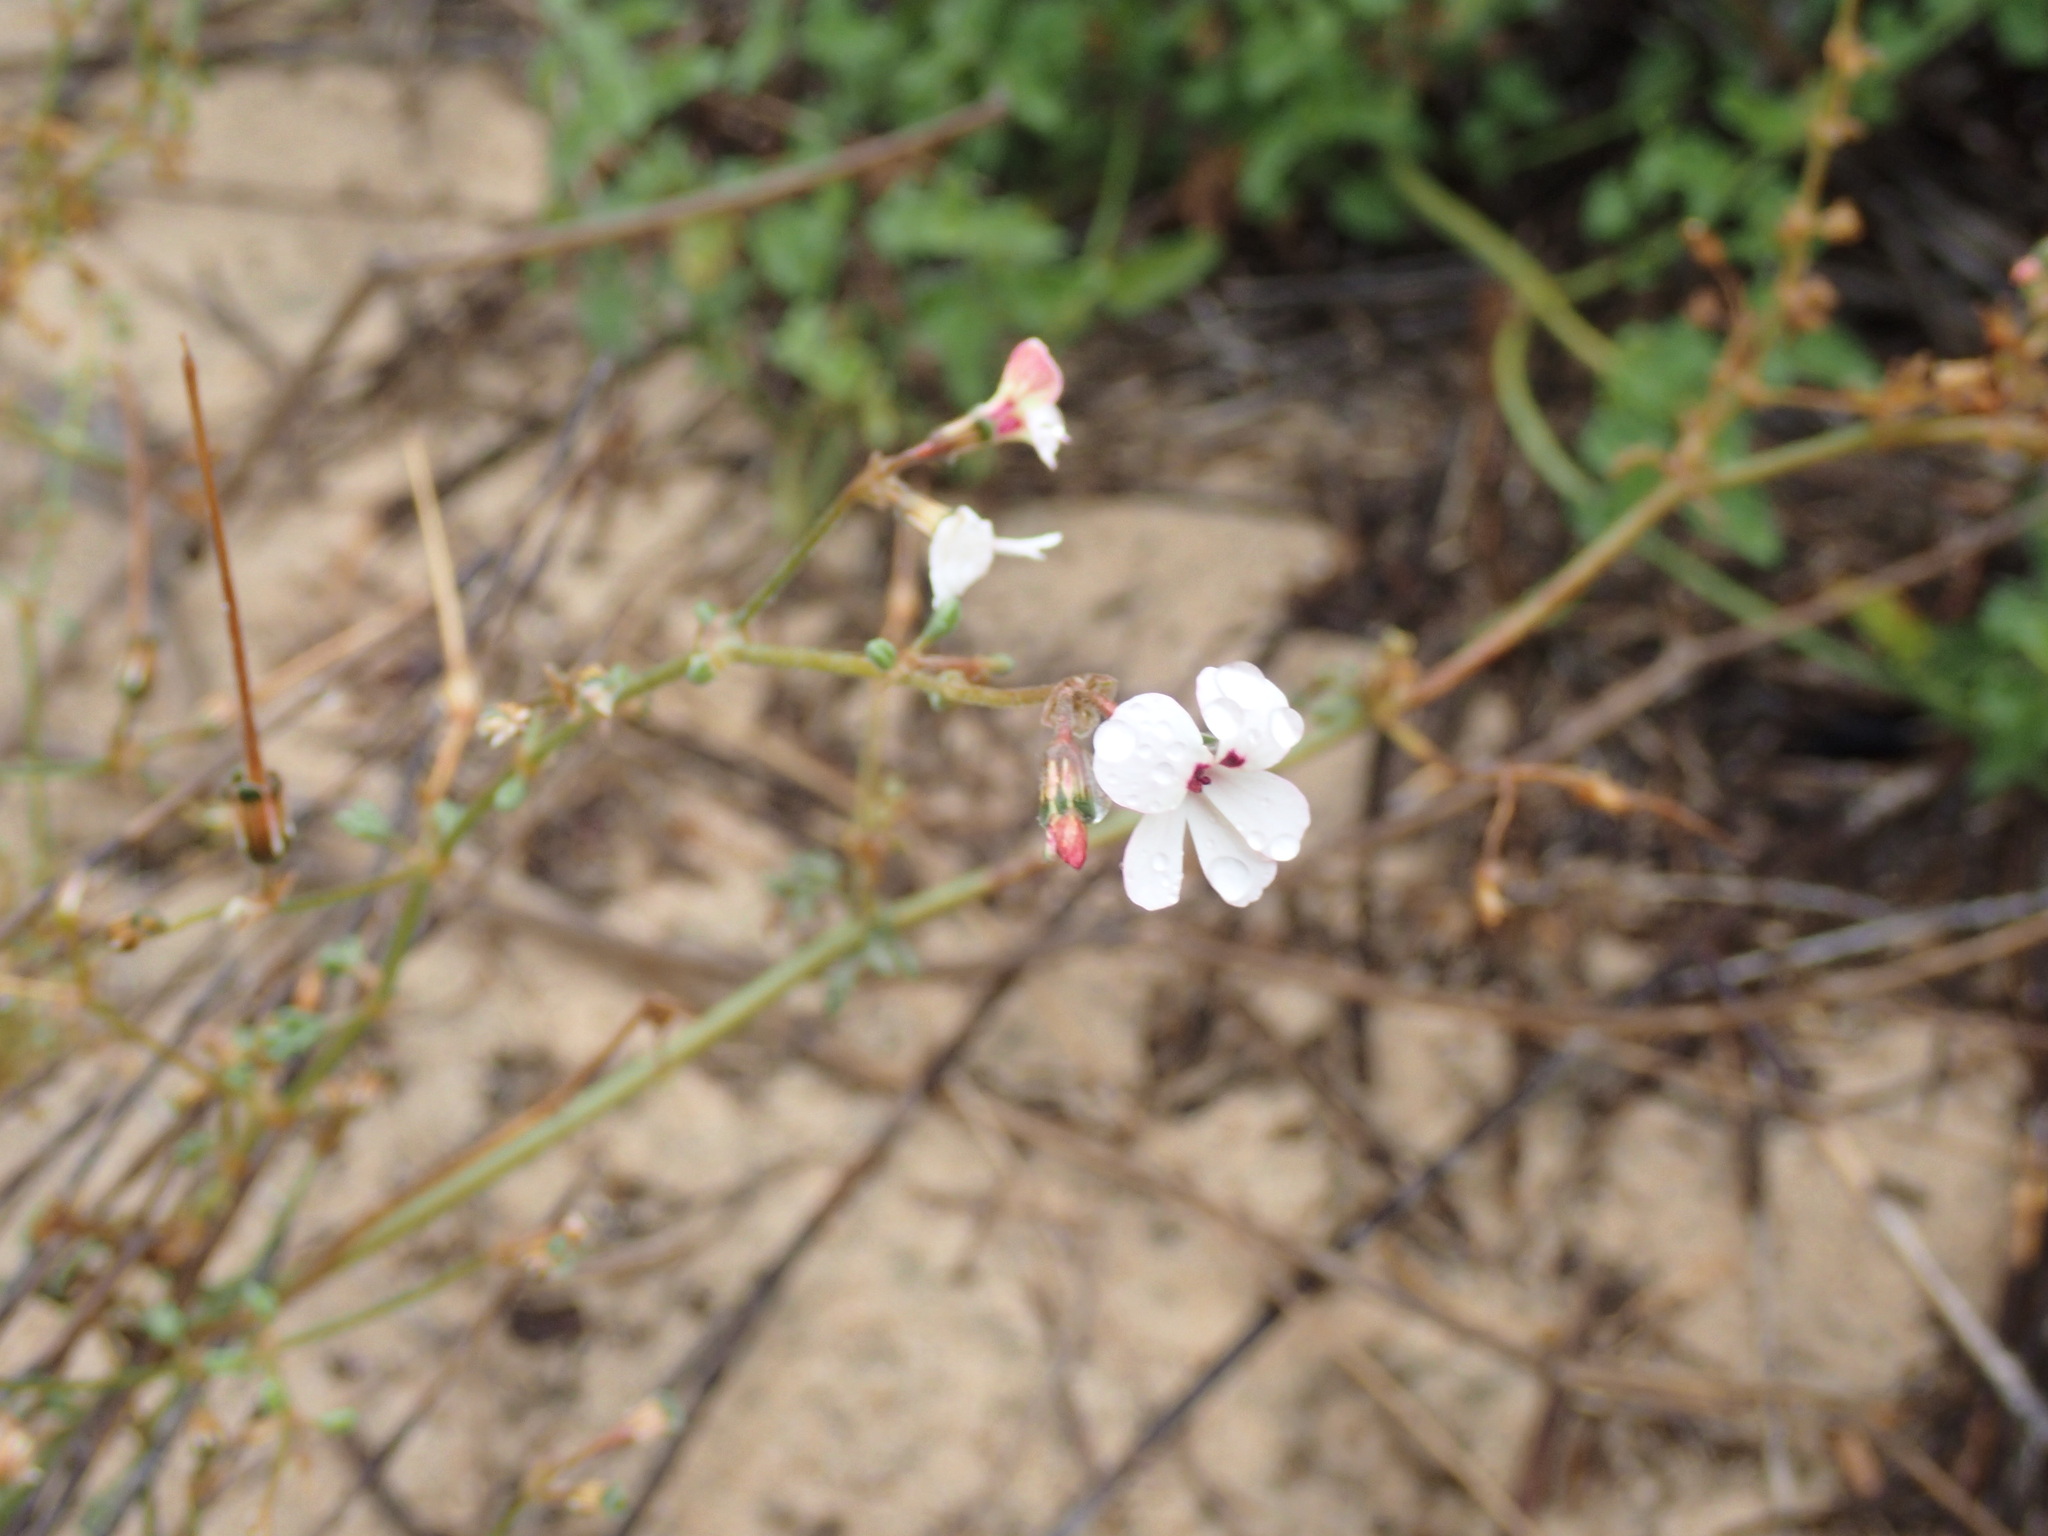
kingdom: Plantae
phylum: Tracheophyta
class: Magnoliopsida
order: Geraniales
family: Geraniaceae
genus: Pelargonium
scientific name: Pelargonium senecioides
